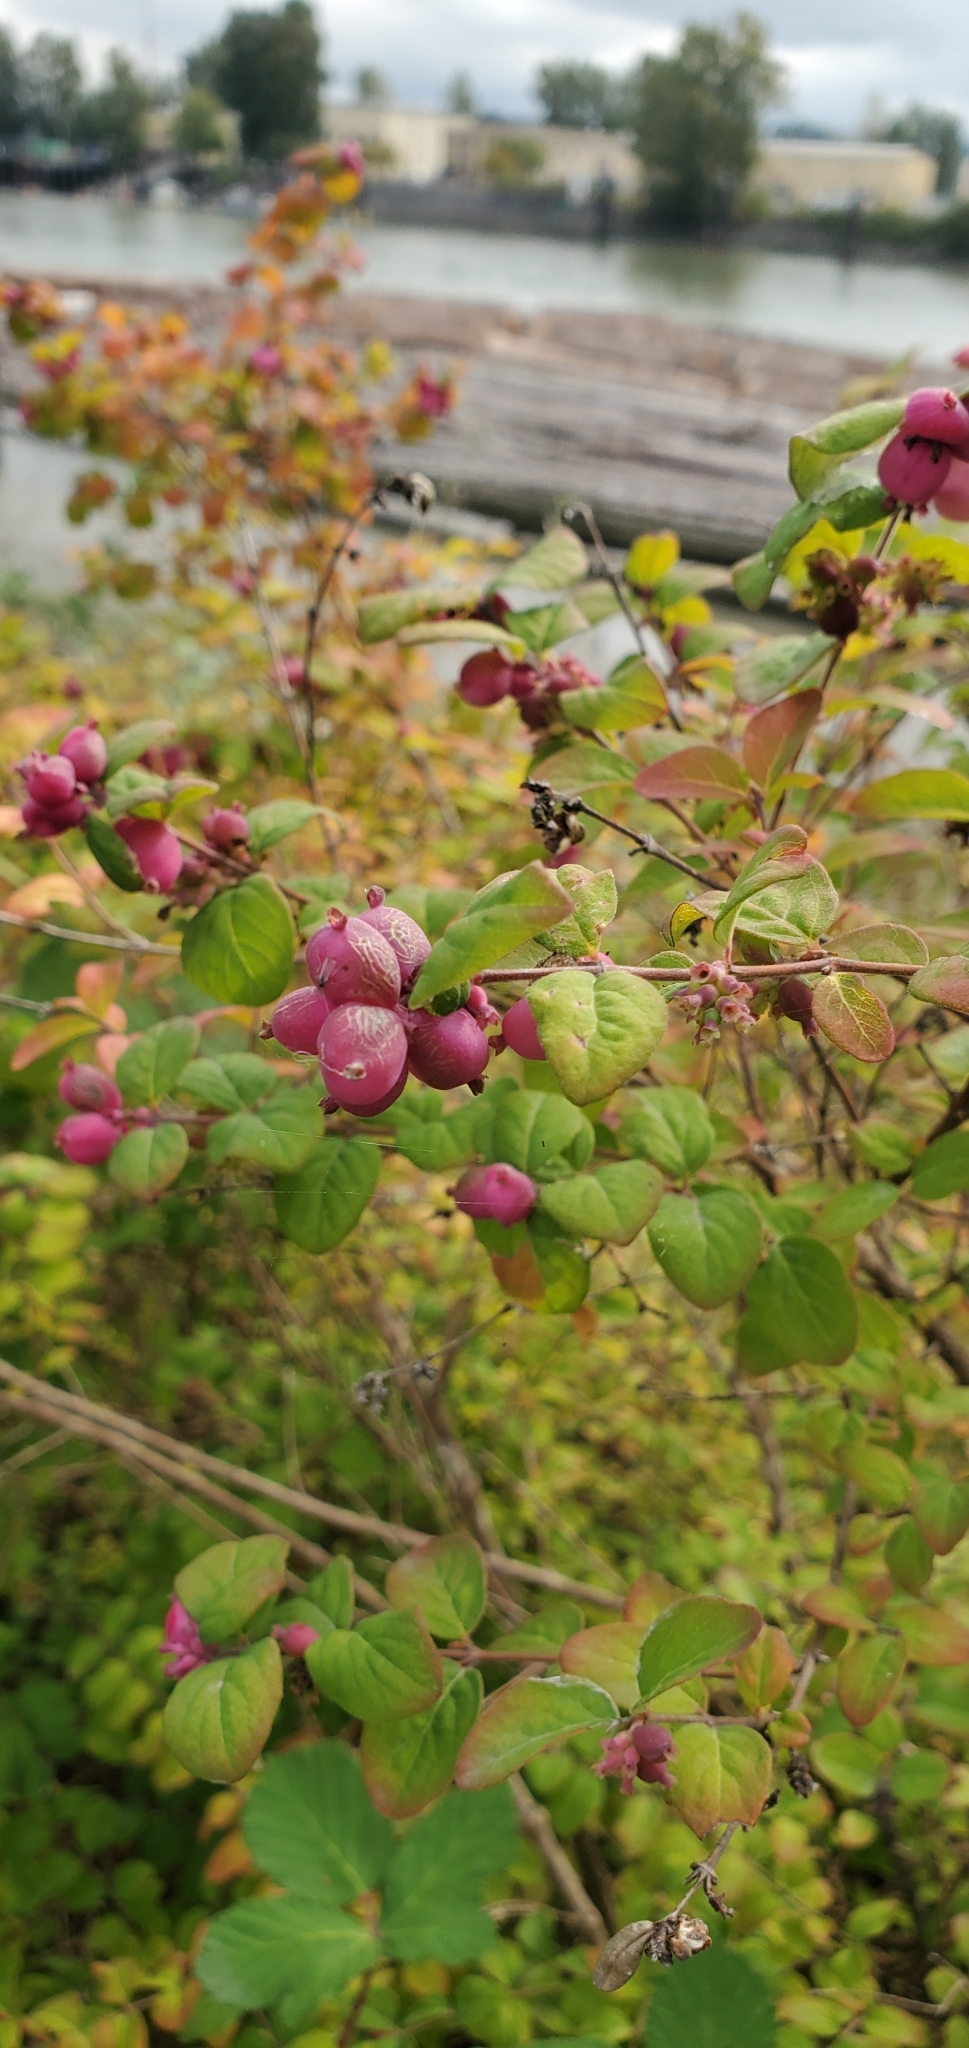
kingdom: Plantae
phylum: Tracheophyta
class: Magnoliopsida
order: Dipsacales
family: Caprifoliaceae
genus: Symphoricarpos
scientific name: Symphoricarpos orbiculatus
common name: Coralberry
